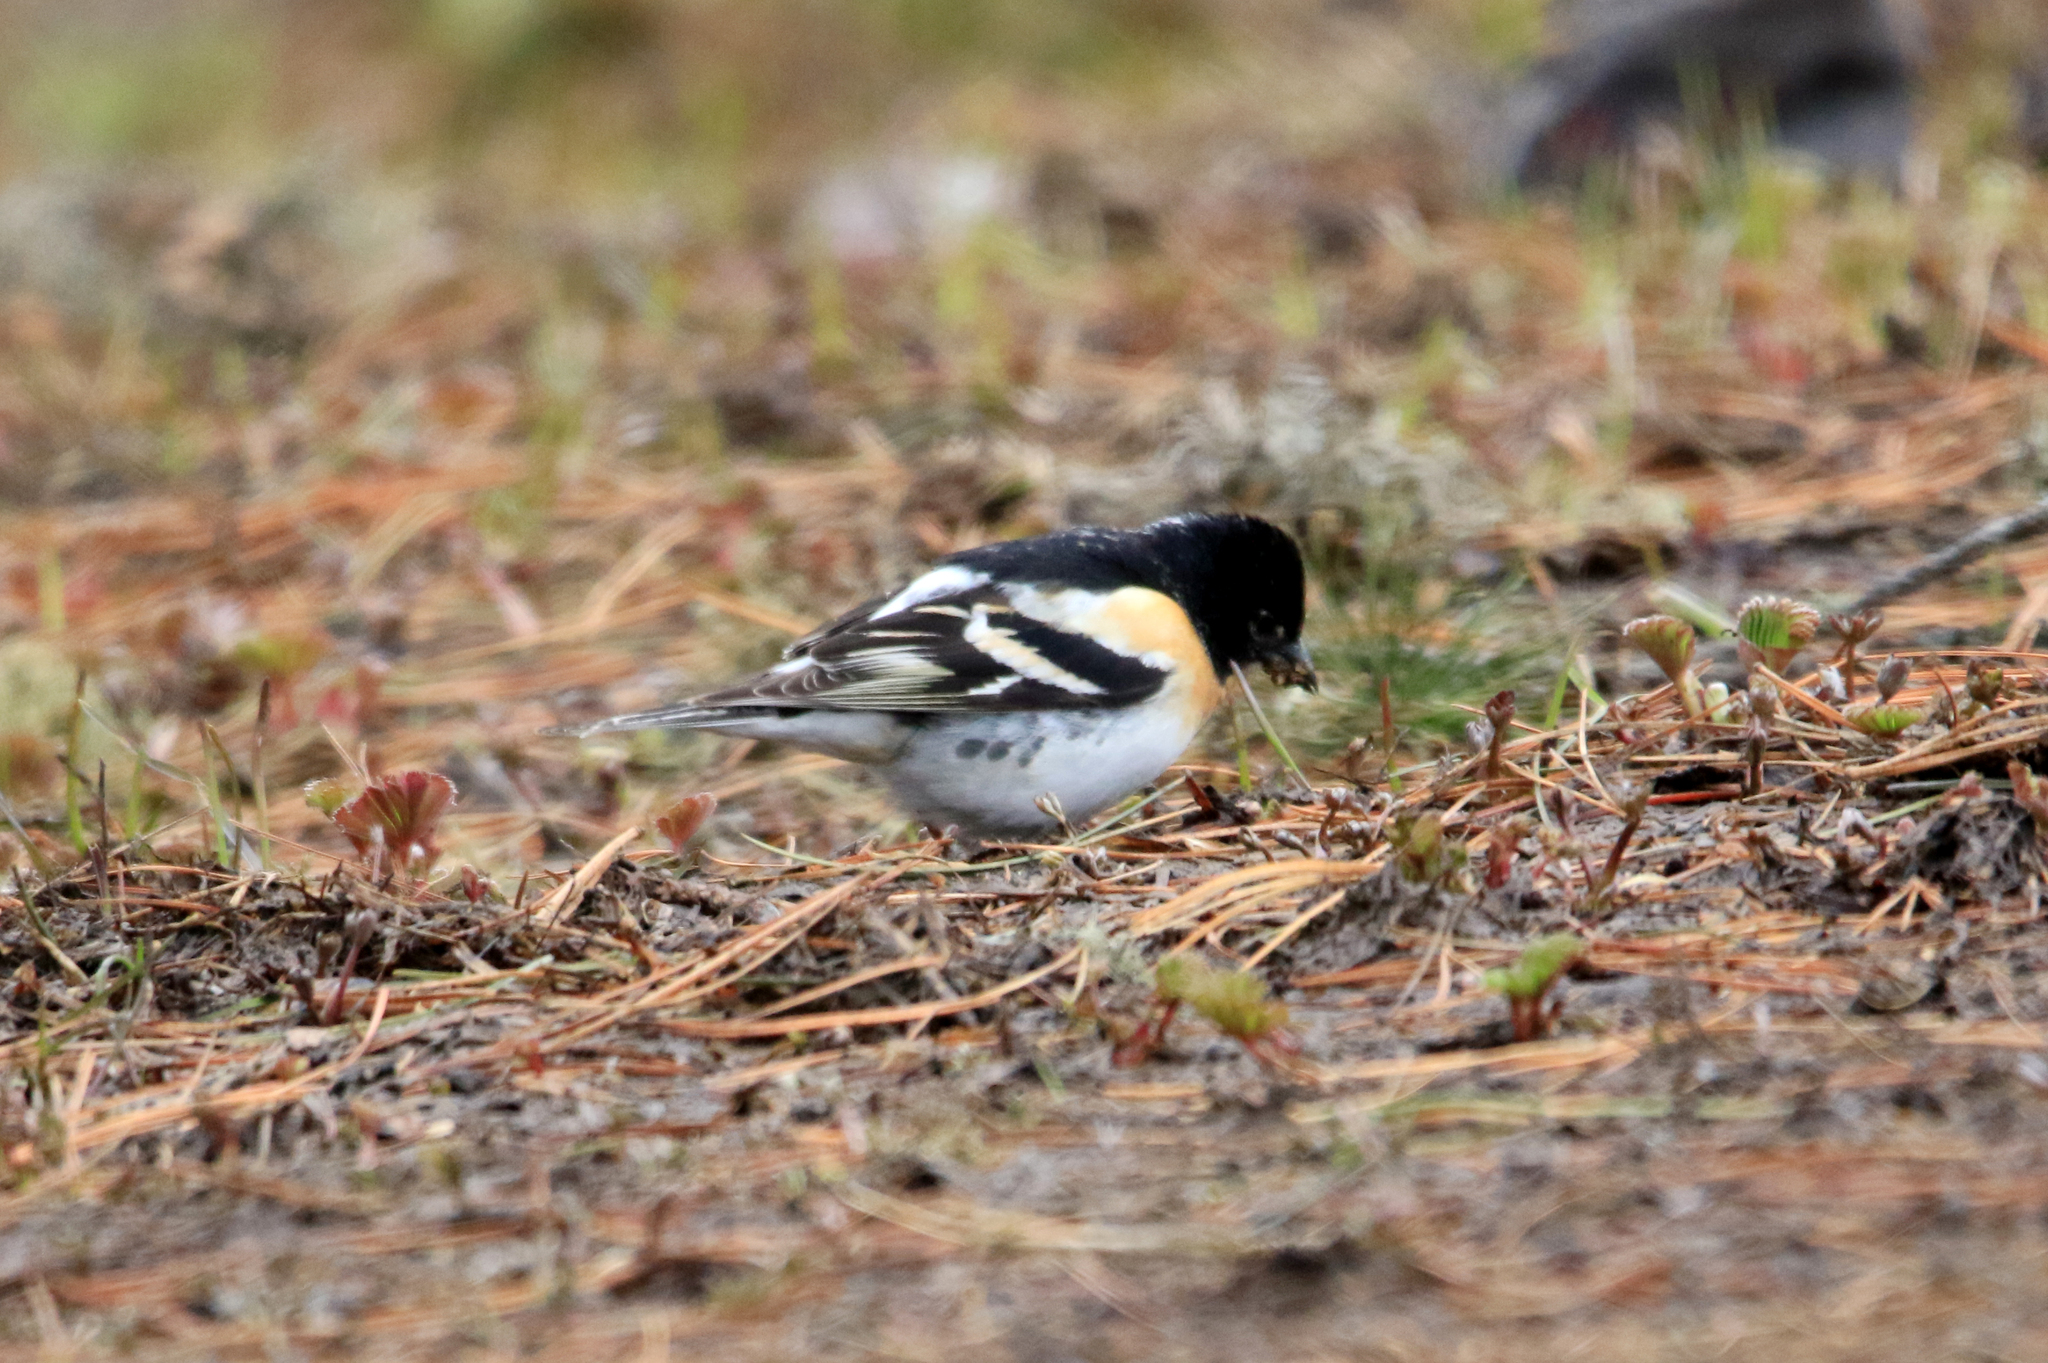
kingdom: Animalia
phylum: Chordata
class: Aves
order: Passeriformes
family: Fringillidae
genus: Fringilla
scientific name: Fringilla montifringilla
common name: Brambling
